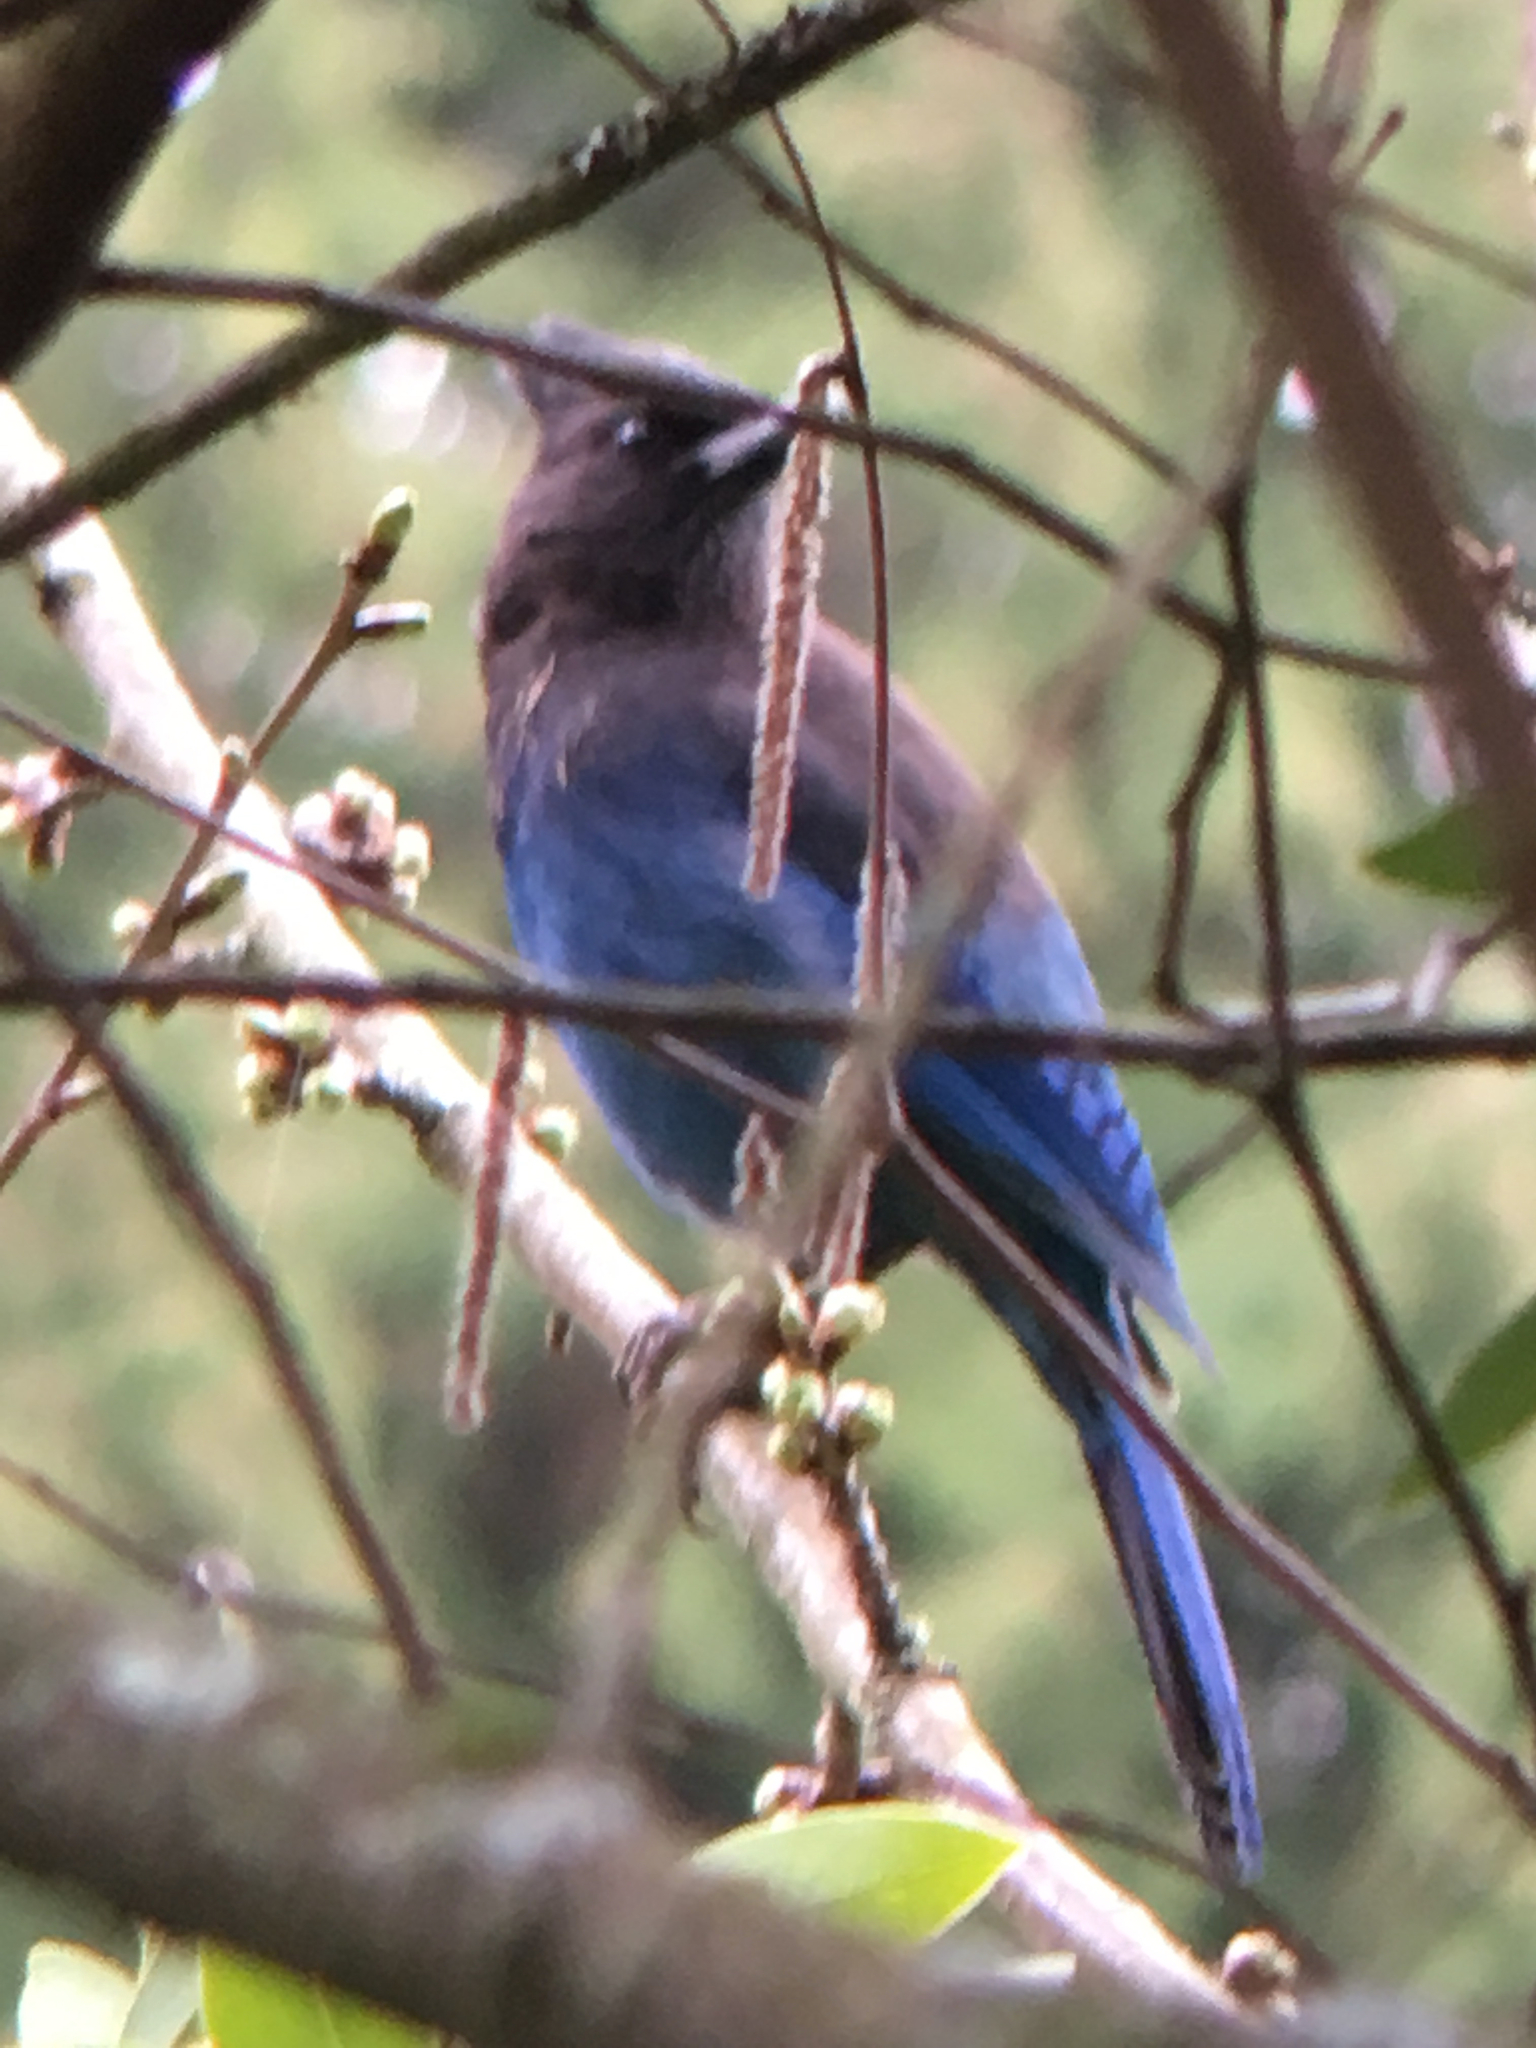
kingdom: Animalia
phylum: Chordata
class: Aves
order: Passeriformes
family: Corvidae
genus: Cyanocitta
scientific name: Cyanocitta stelleri
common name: Steller's jay
